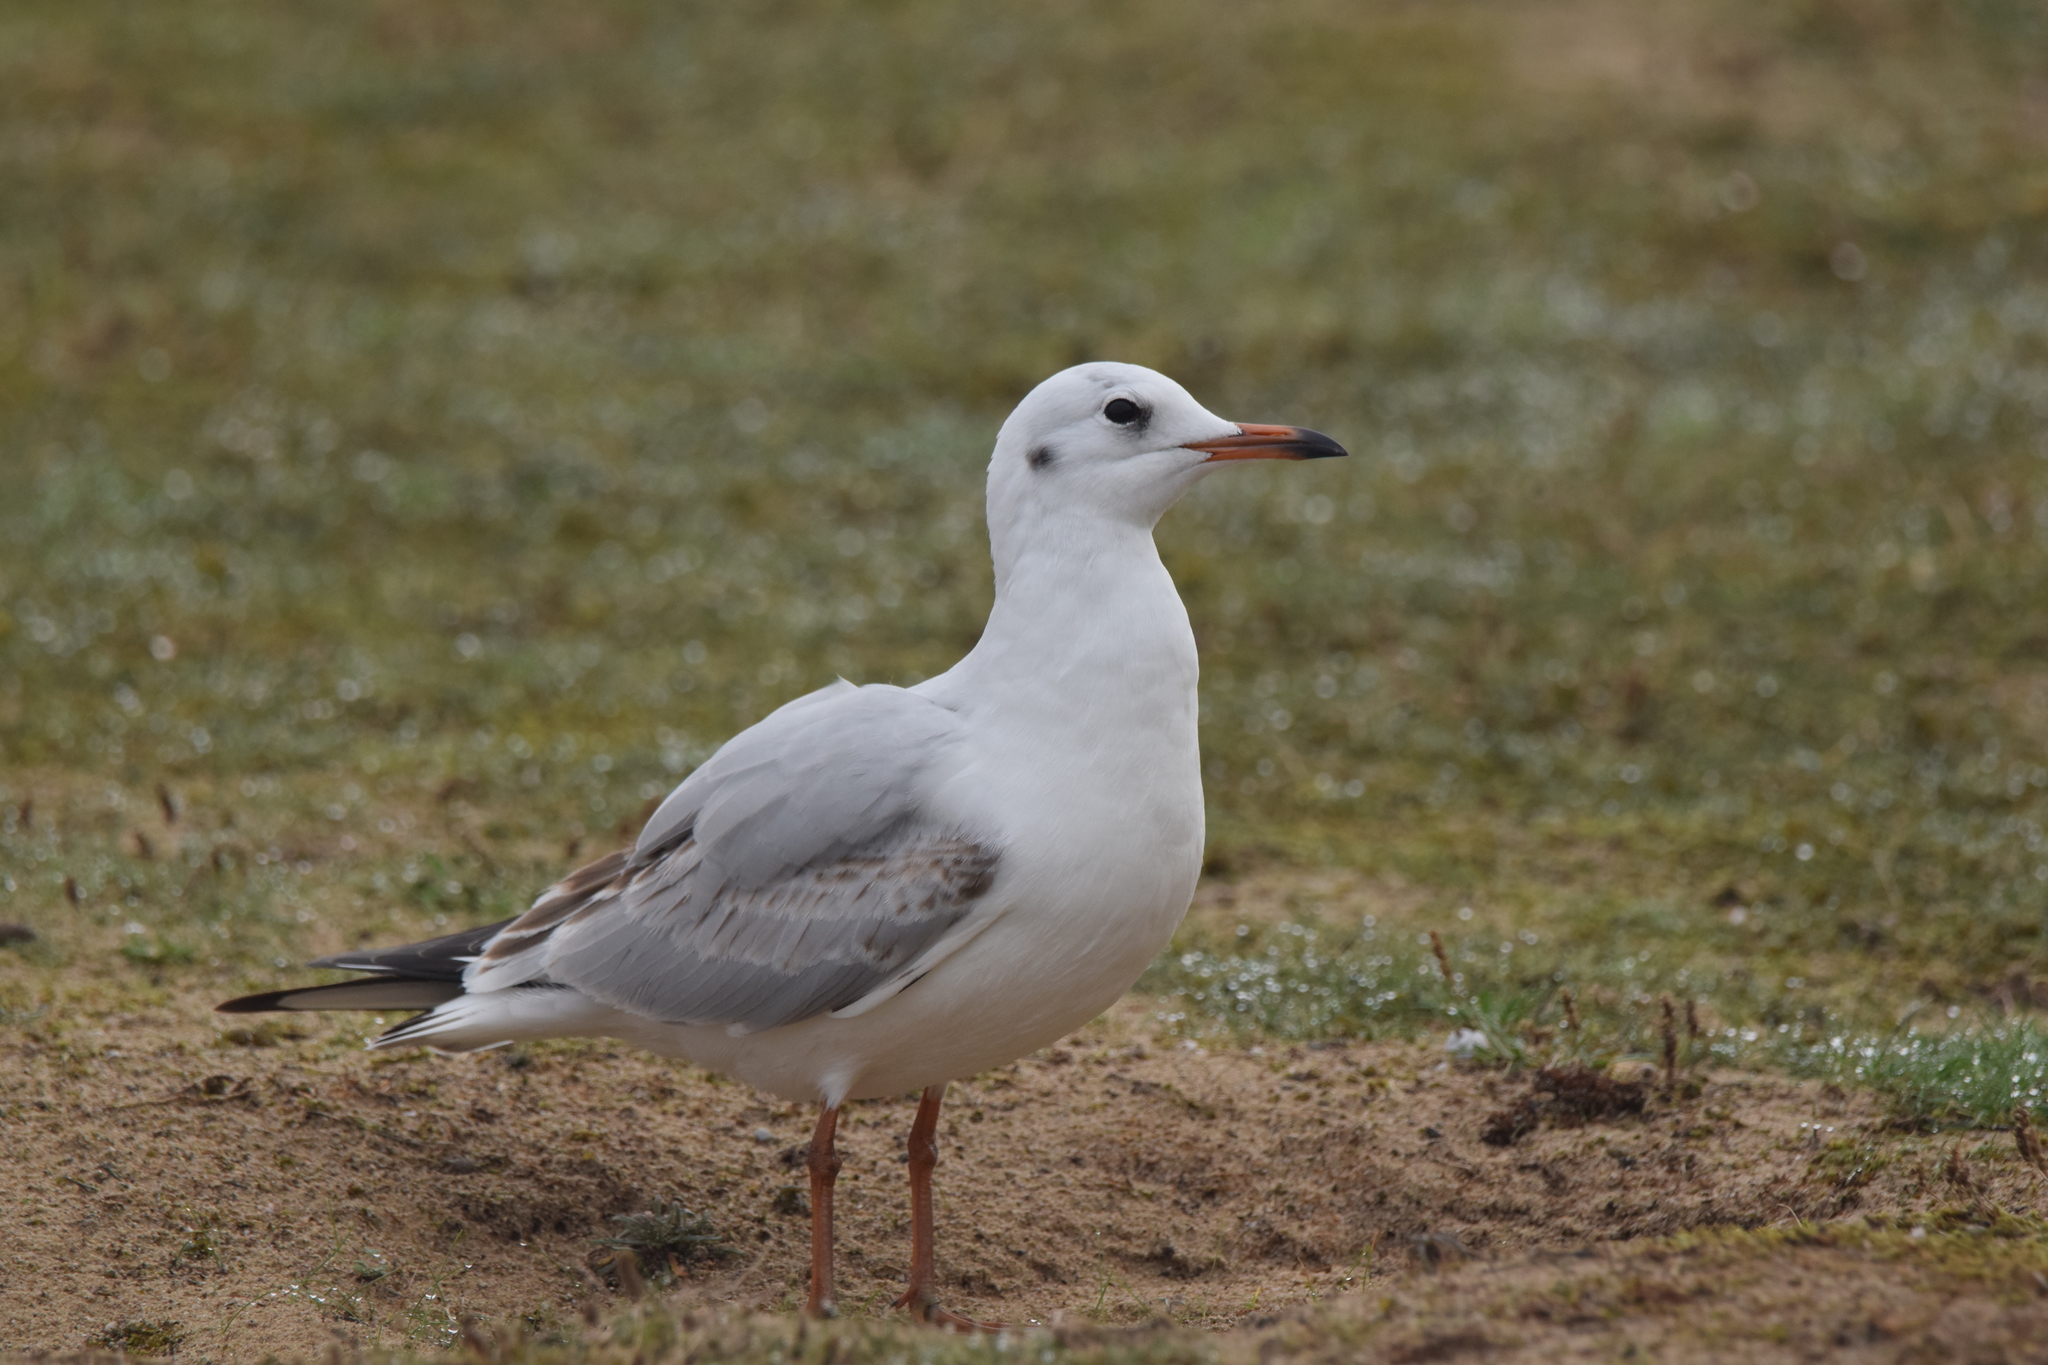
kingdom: Animalia
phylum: Chordata
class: Aves
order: Charadriiformes
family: Laridae
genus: Chroicocephalus
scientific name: Chroicocephalus ridibundus
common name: Black-headed gull
